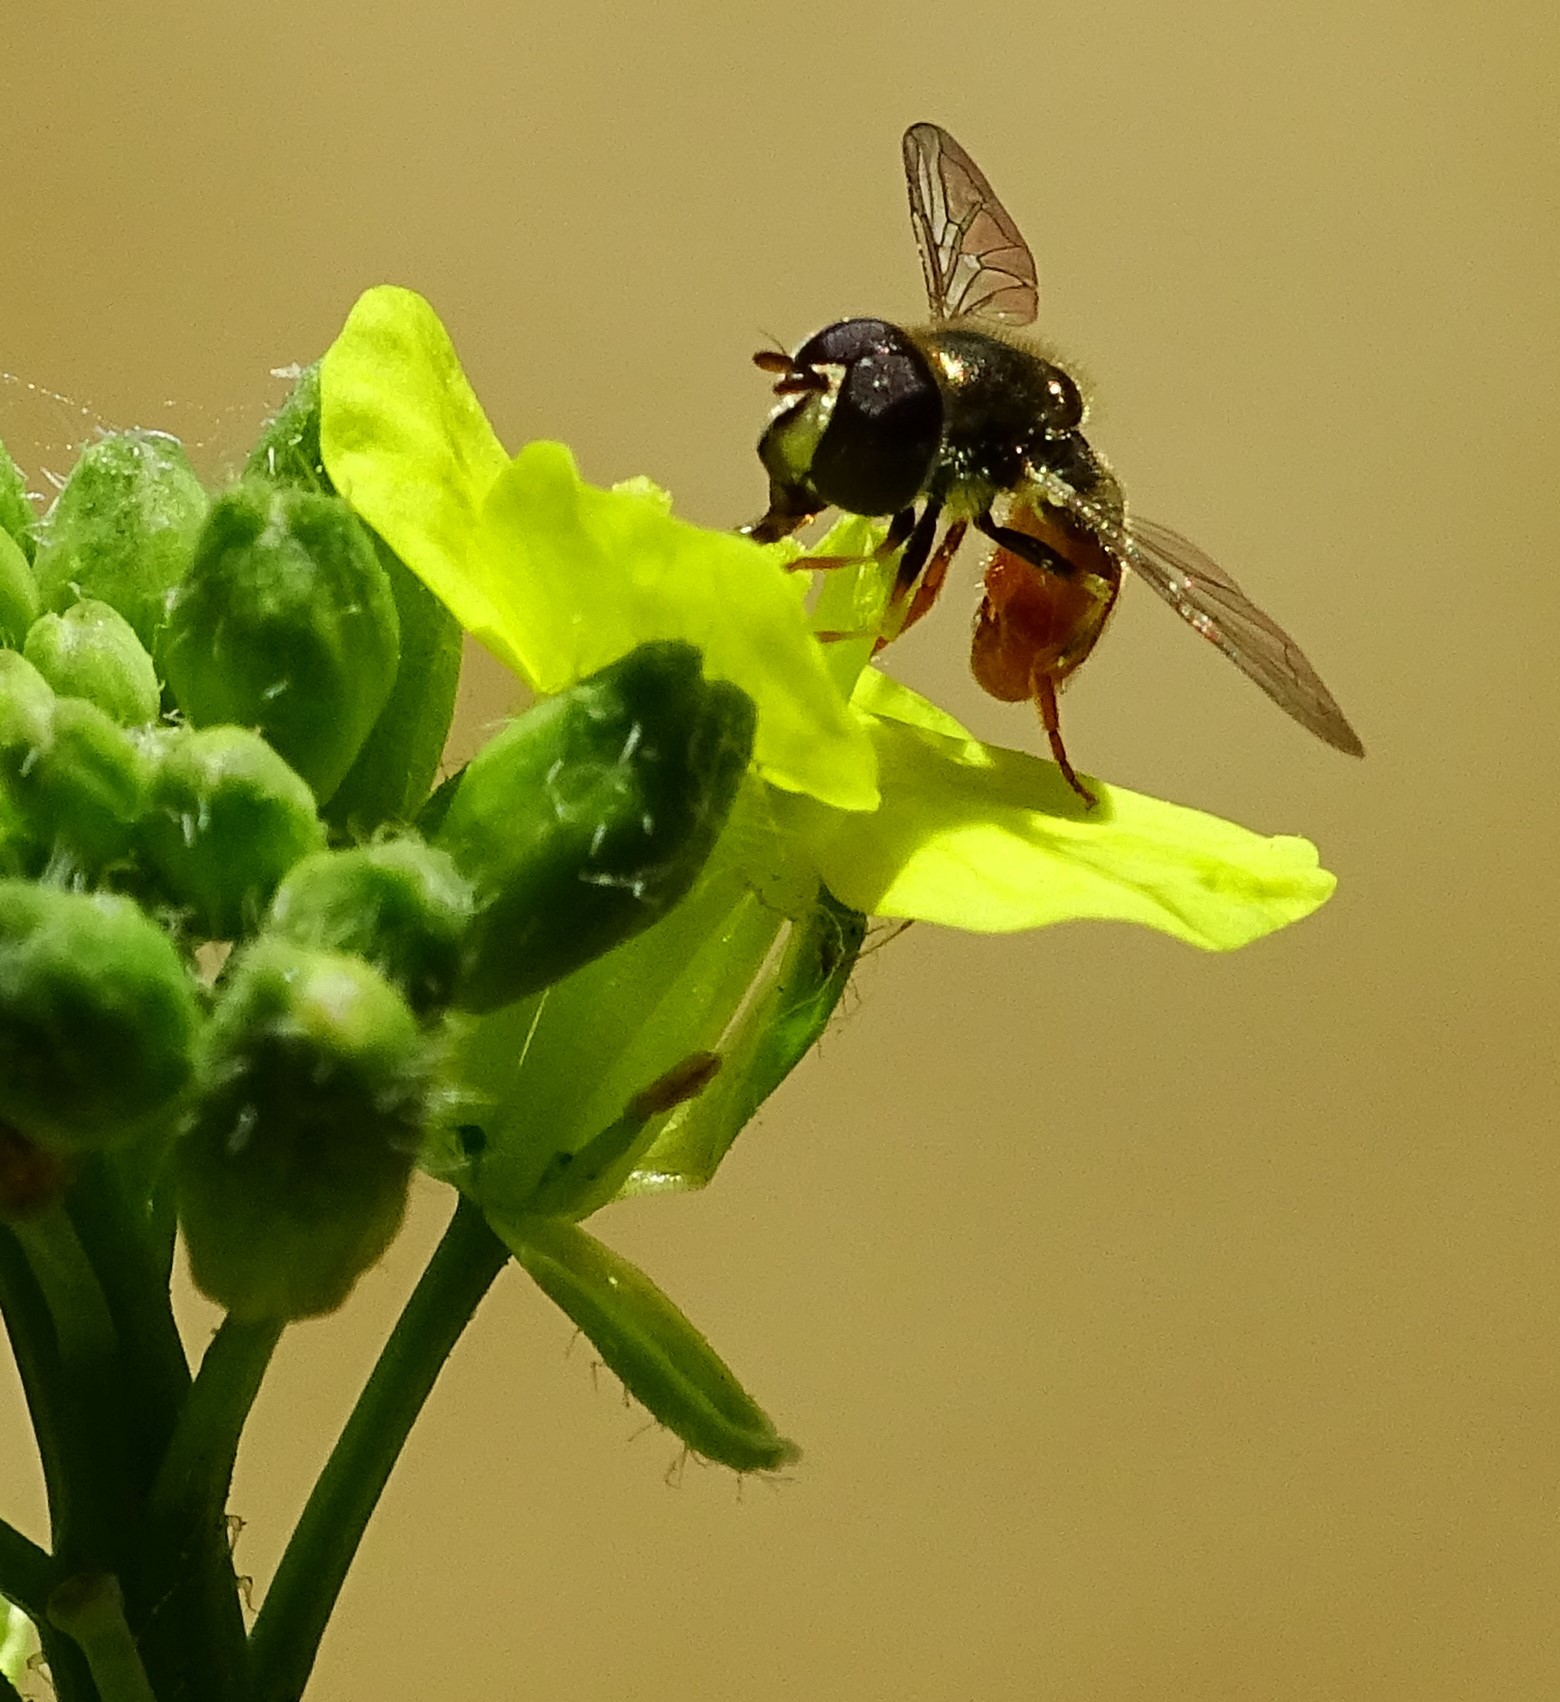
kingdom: Animalia
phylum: Arthropoda
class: Insecta
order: Diptera
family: Syrphidae
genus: Paragus
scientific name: Paragus haemorrhous
